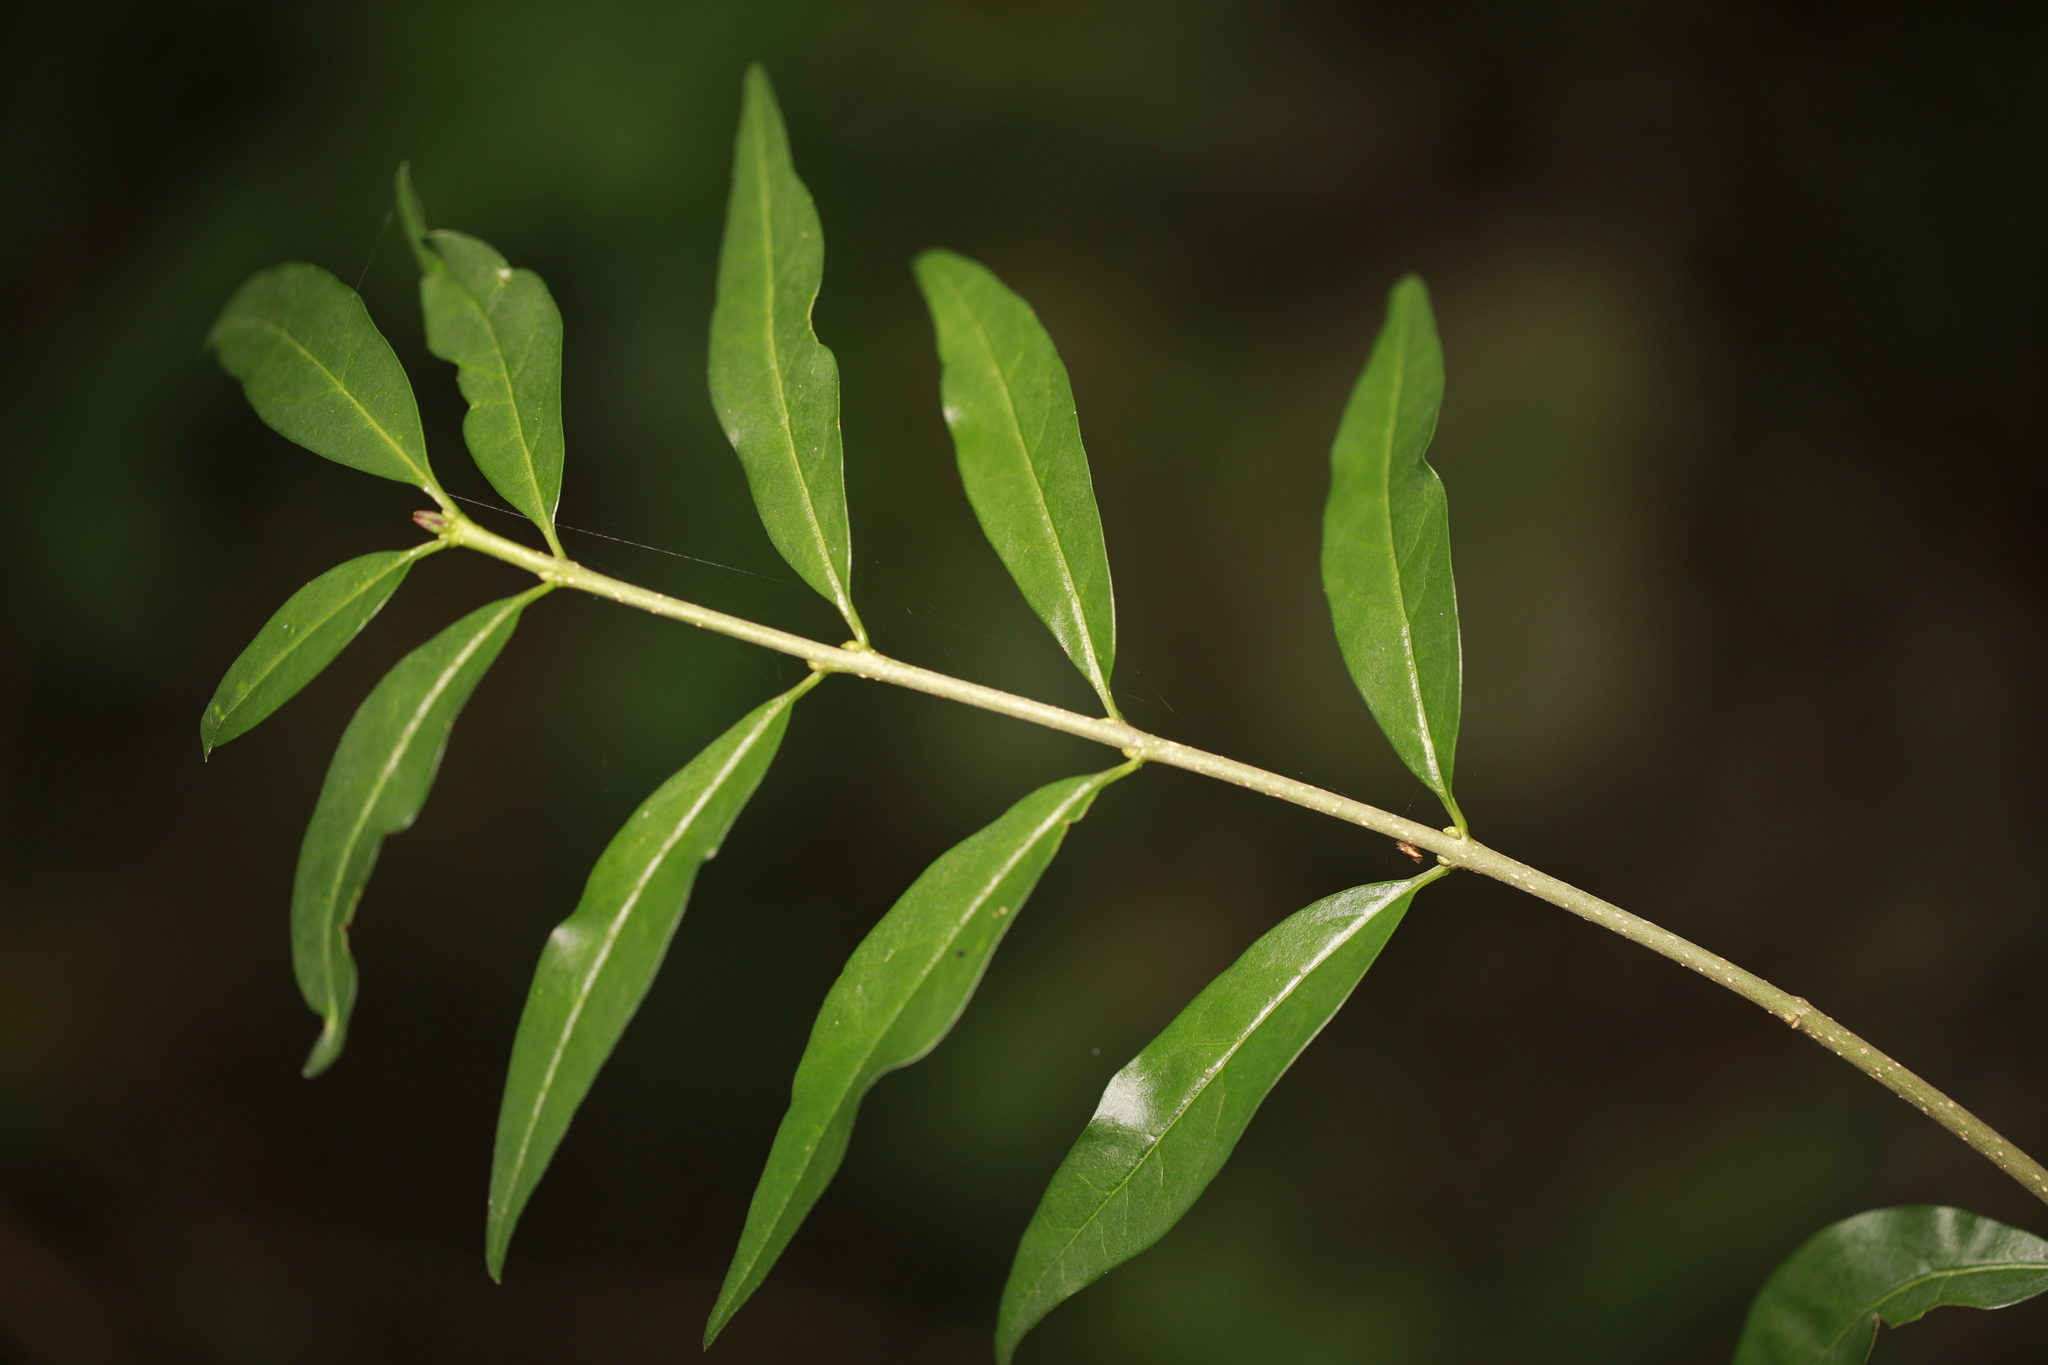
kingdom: Plantae
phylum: Tracheophyta
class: Magnoliopsida
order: Lamiales
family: Oleaceae
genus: Ligustrum
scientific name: Ligustrum vulgare
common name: Wild privet
